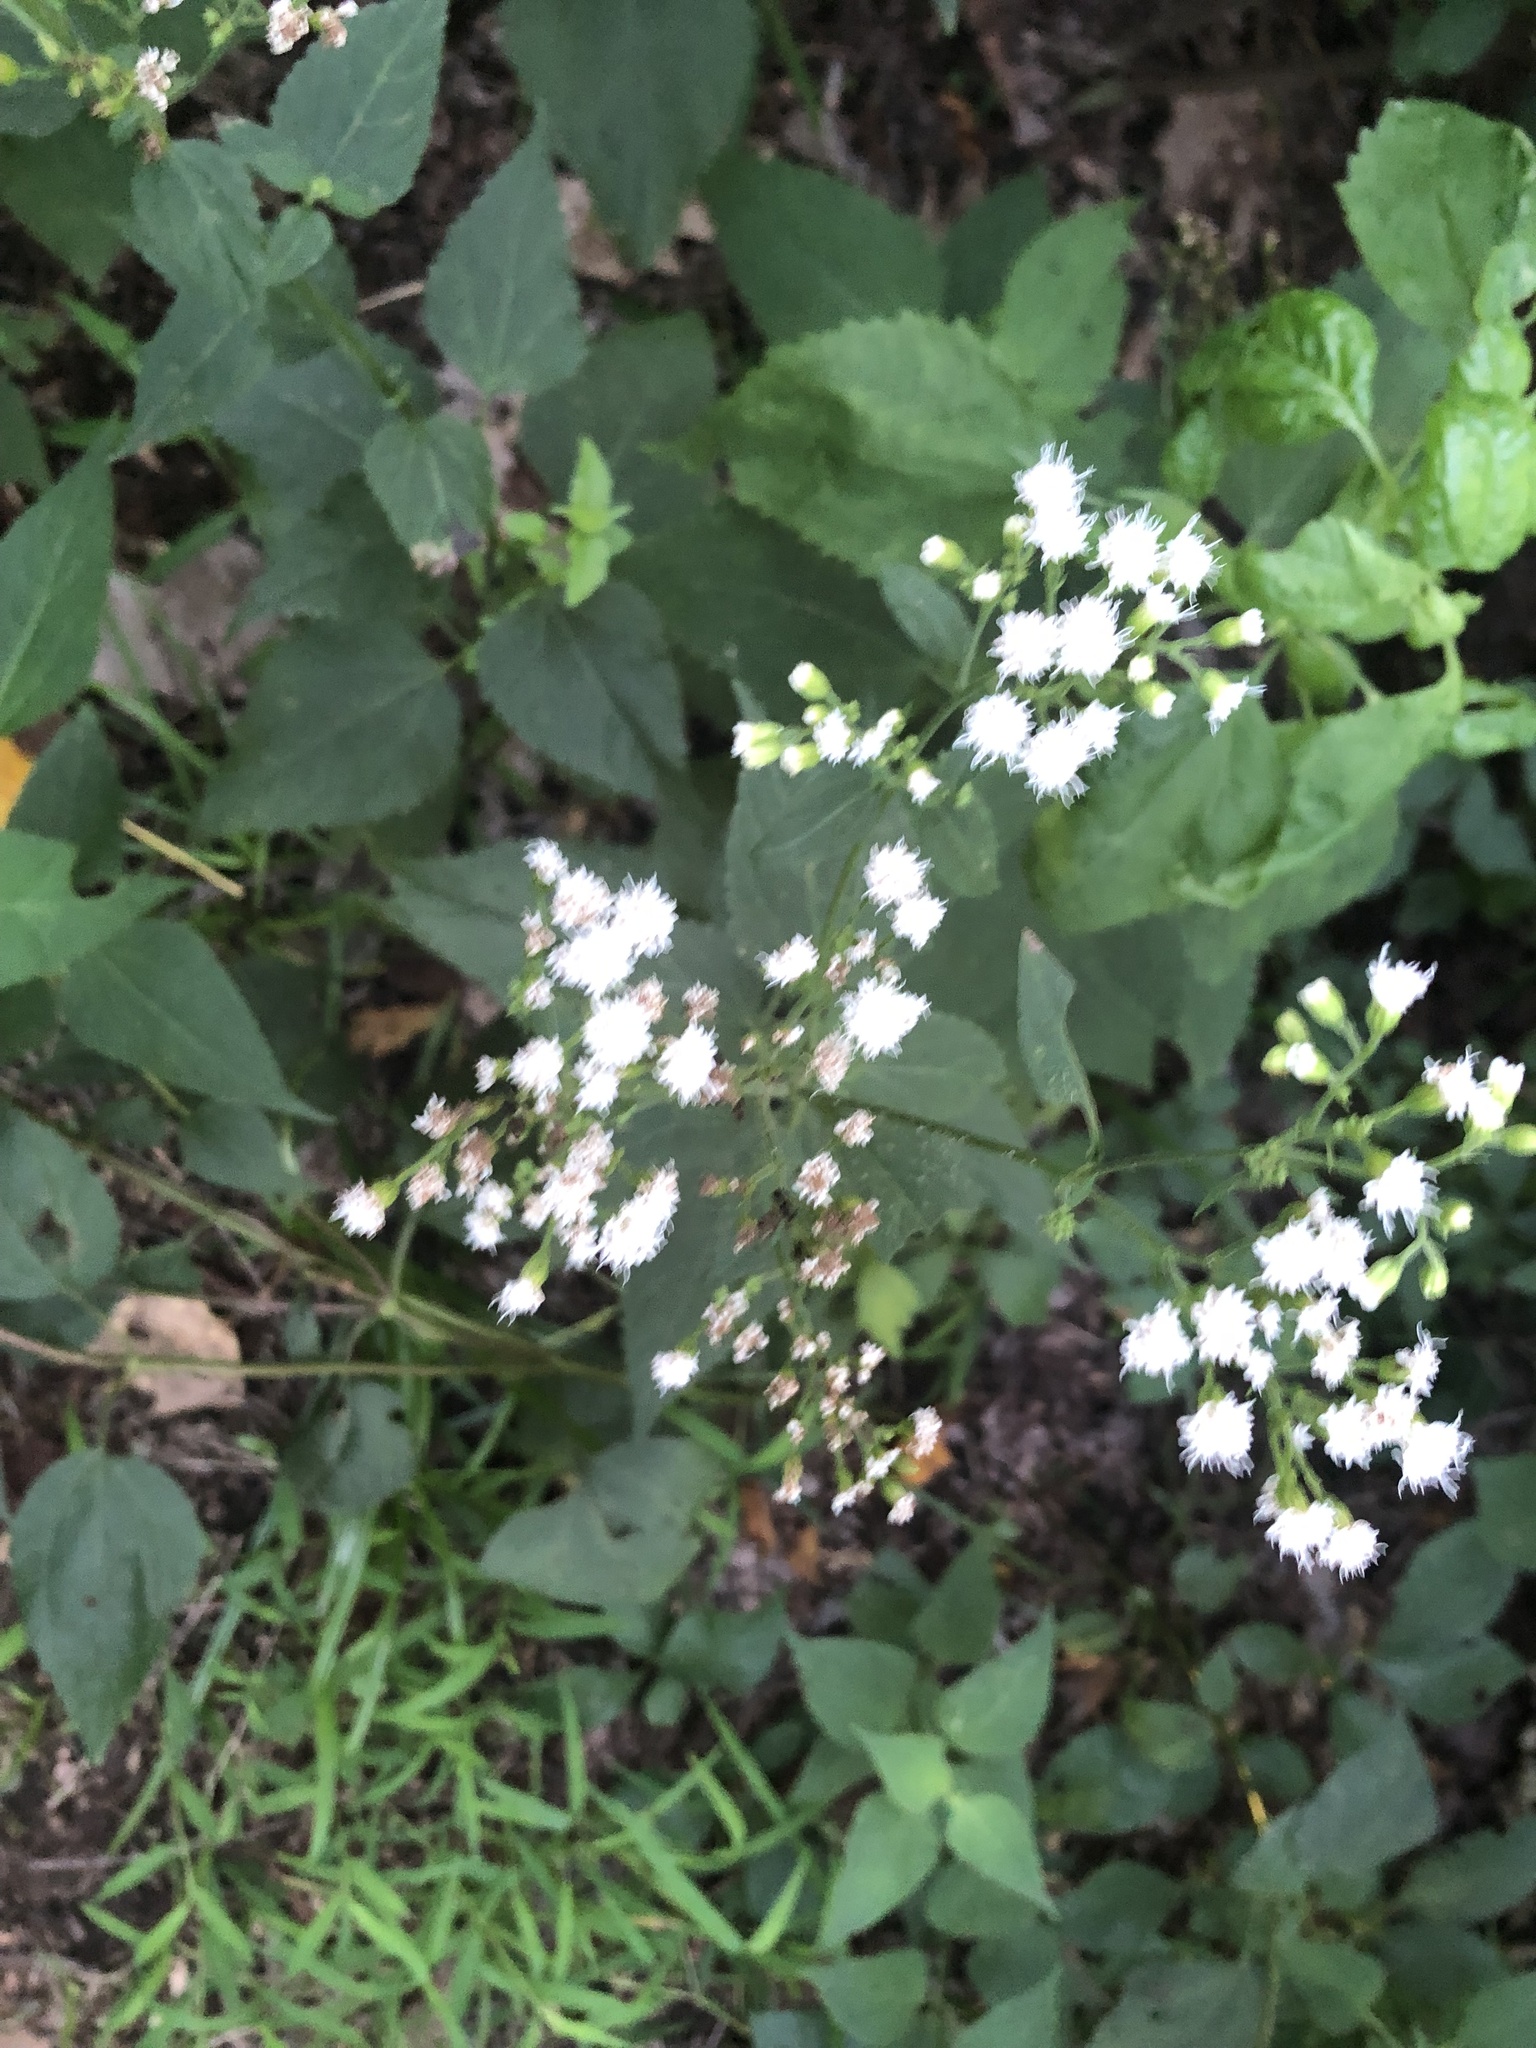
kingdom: Plantae
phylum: Tracheophyta
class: Magnoliopsida
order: Asterales
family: Asteraceae
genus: Ageratina
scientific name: Ageratina altissima
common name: White snakeroot
